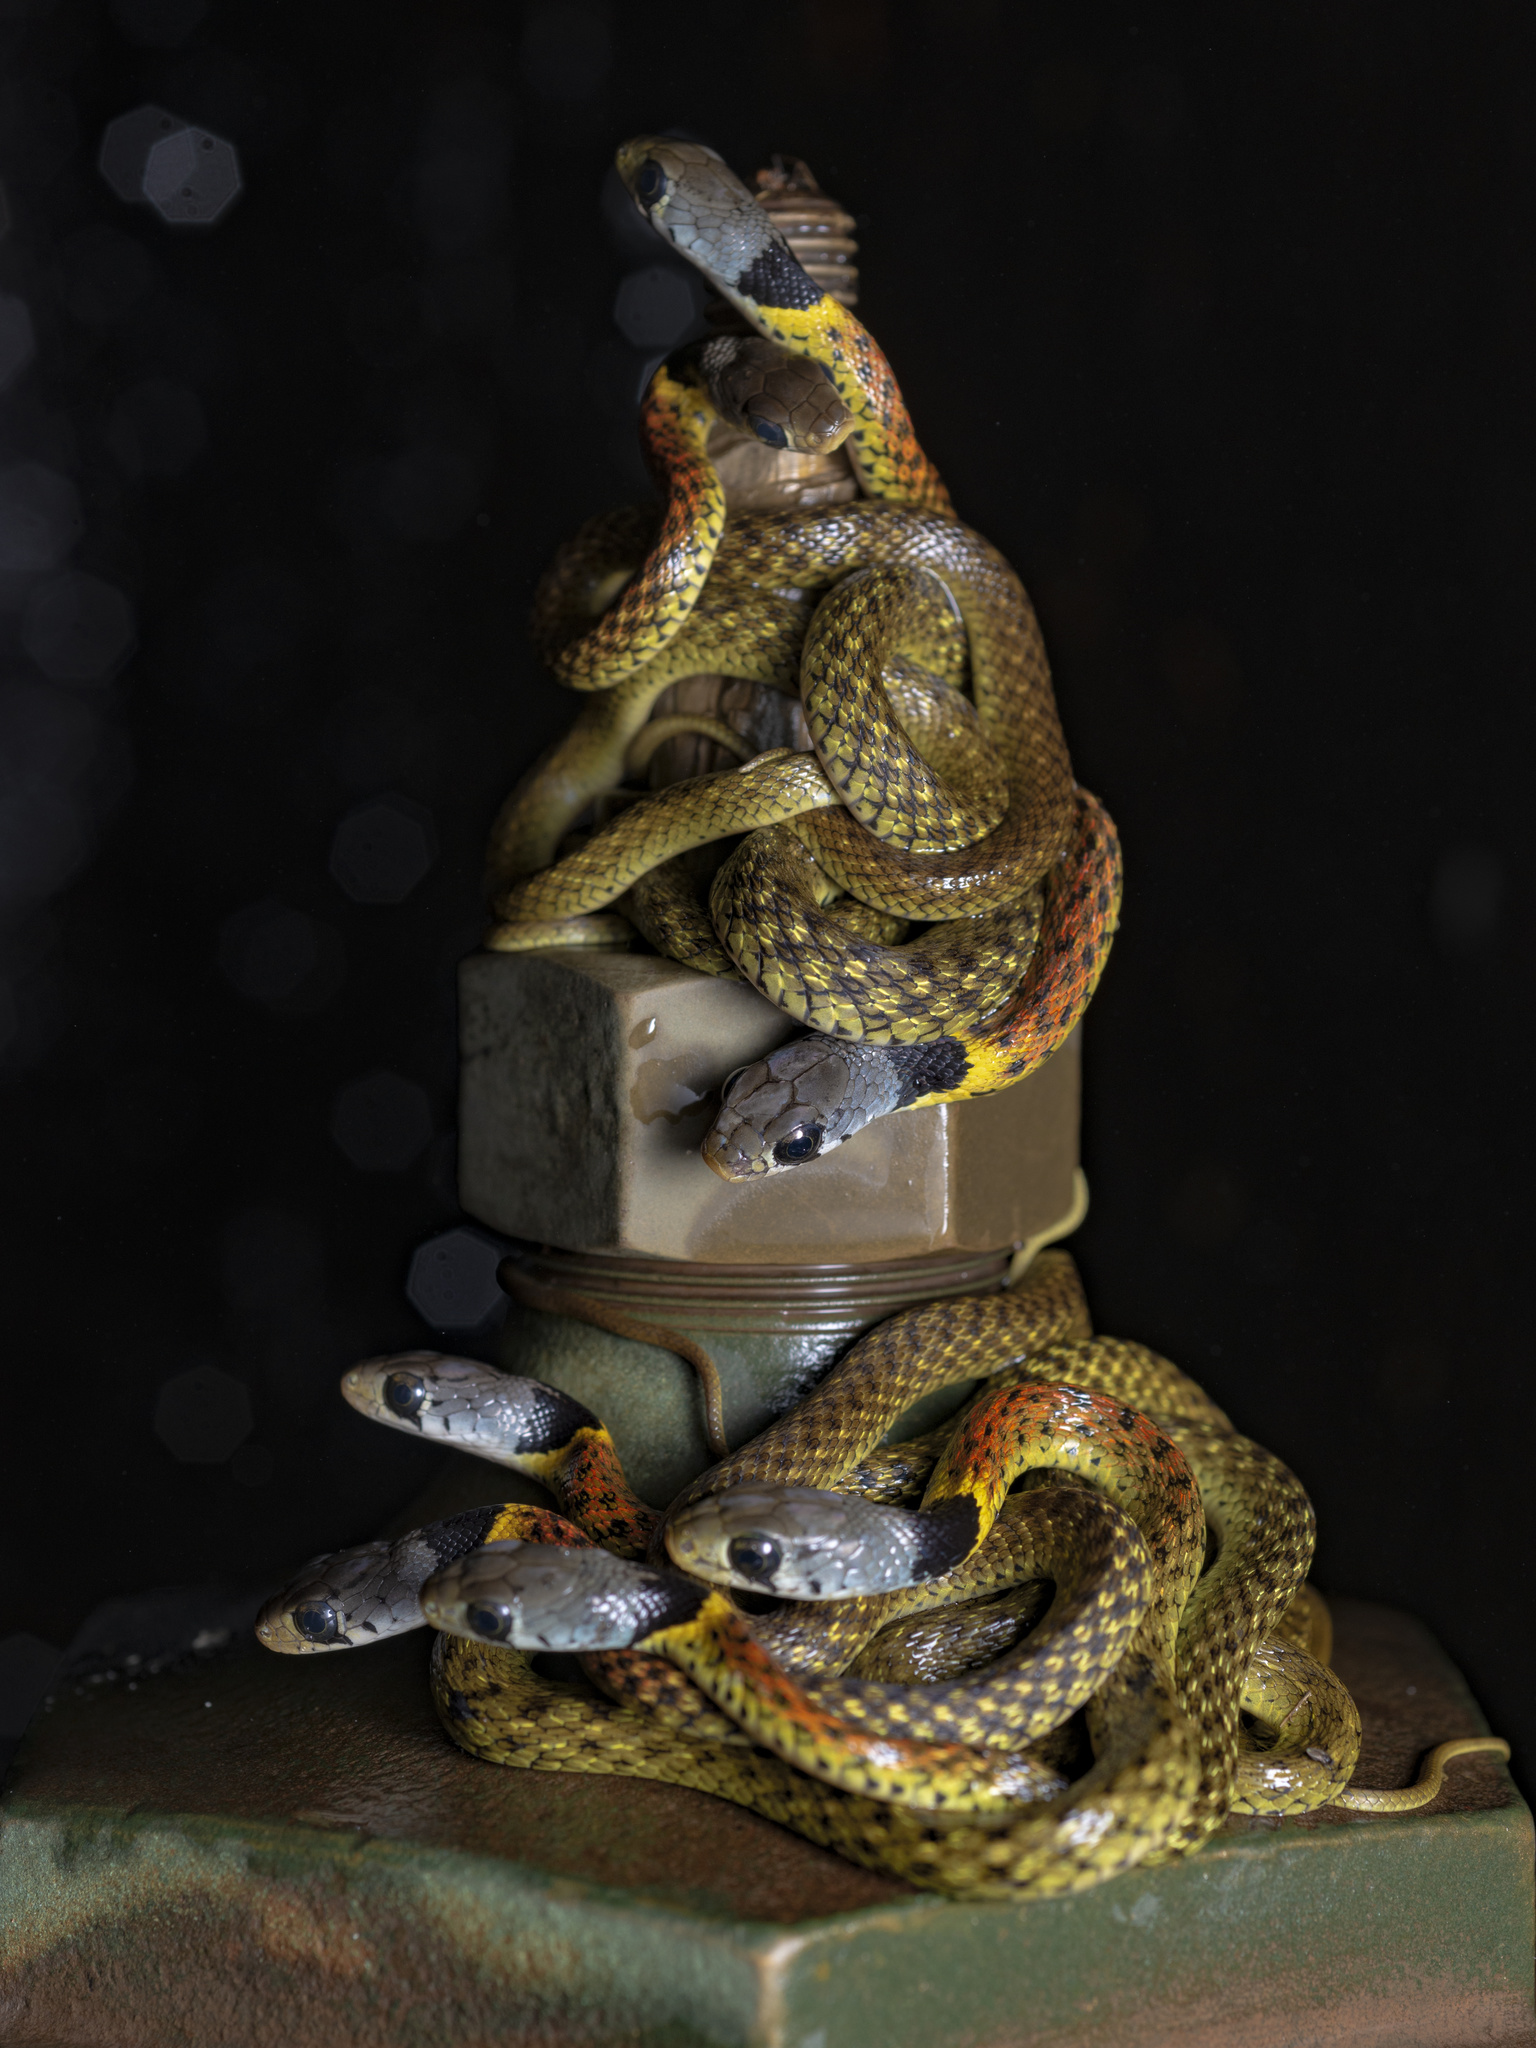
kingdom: Animalia
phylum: Chordata
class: Squamata
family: Colubridae
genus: Rhabdophis
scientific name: Rhabdophis helleri
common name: Heller’s red-necked keelback
